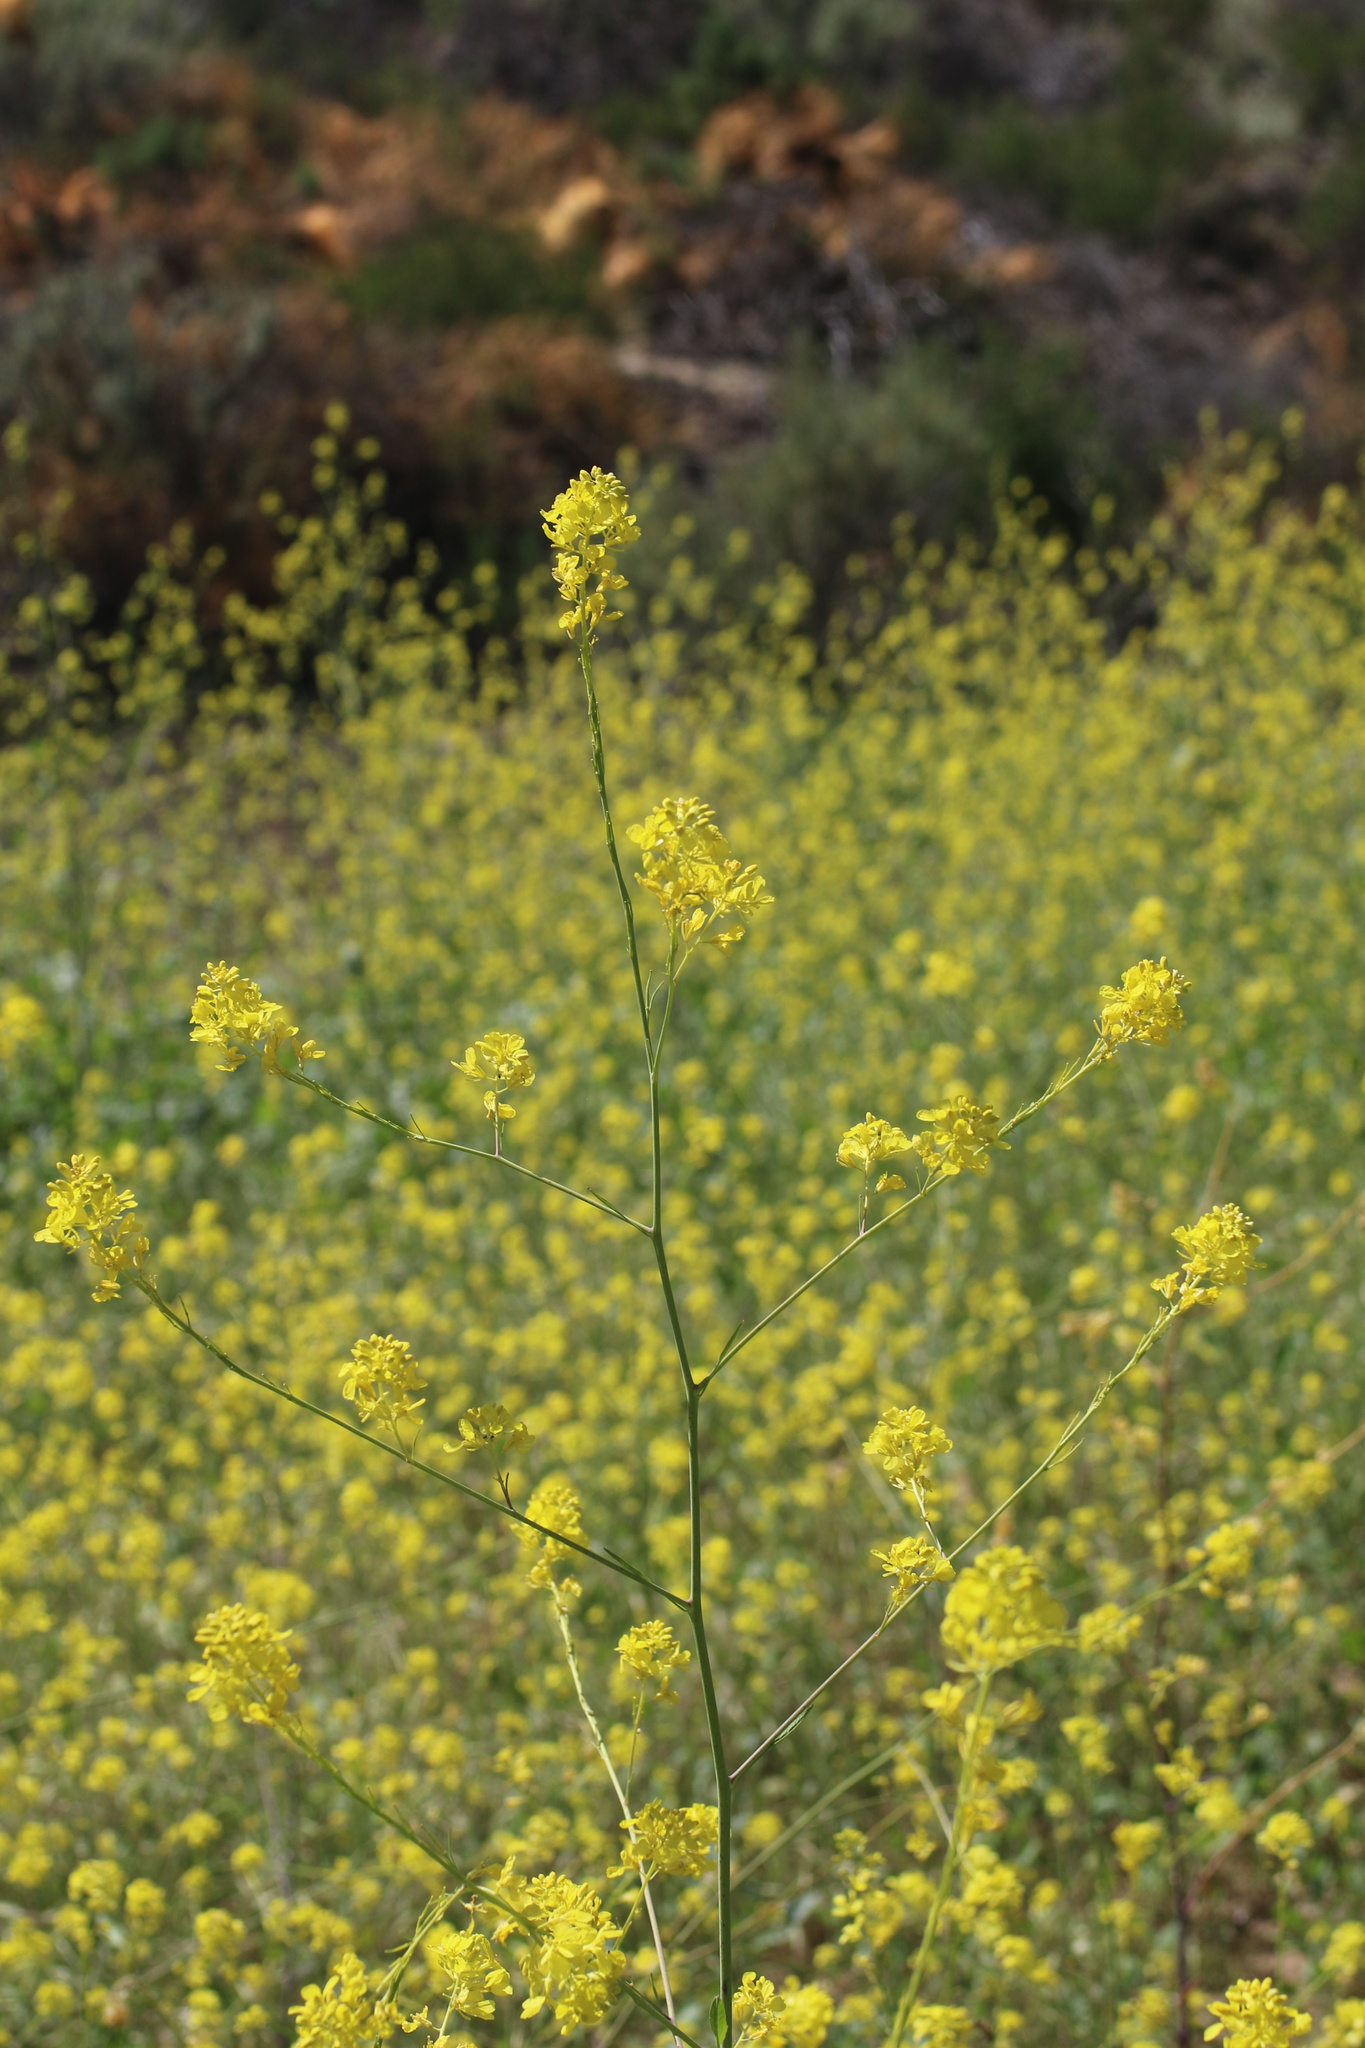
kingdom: Plantae
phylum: Tracheophyta
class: Magnoliopsida
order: Brassicales
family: Brassicaceae
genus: Brassica
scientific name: Brassica nigra
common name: Black mustard
